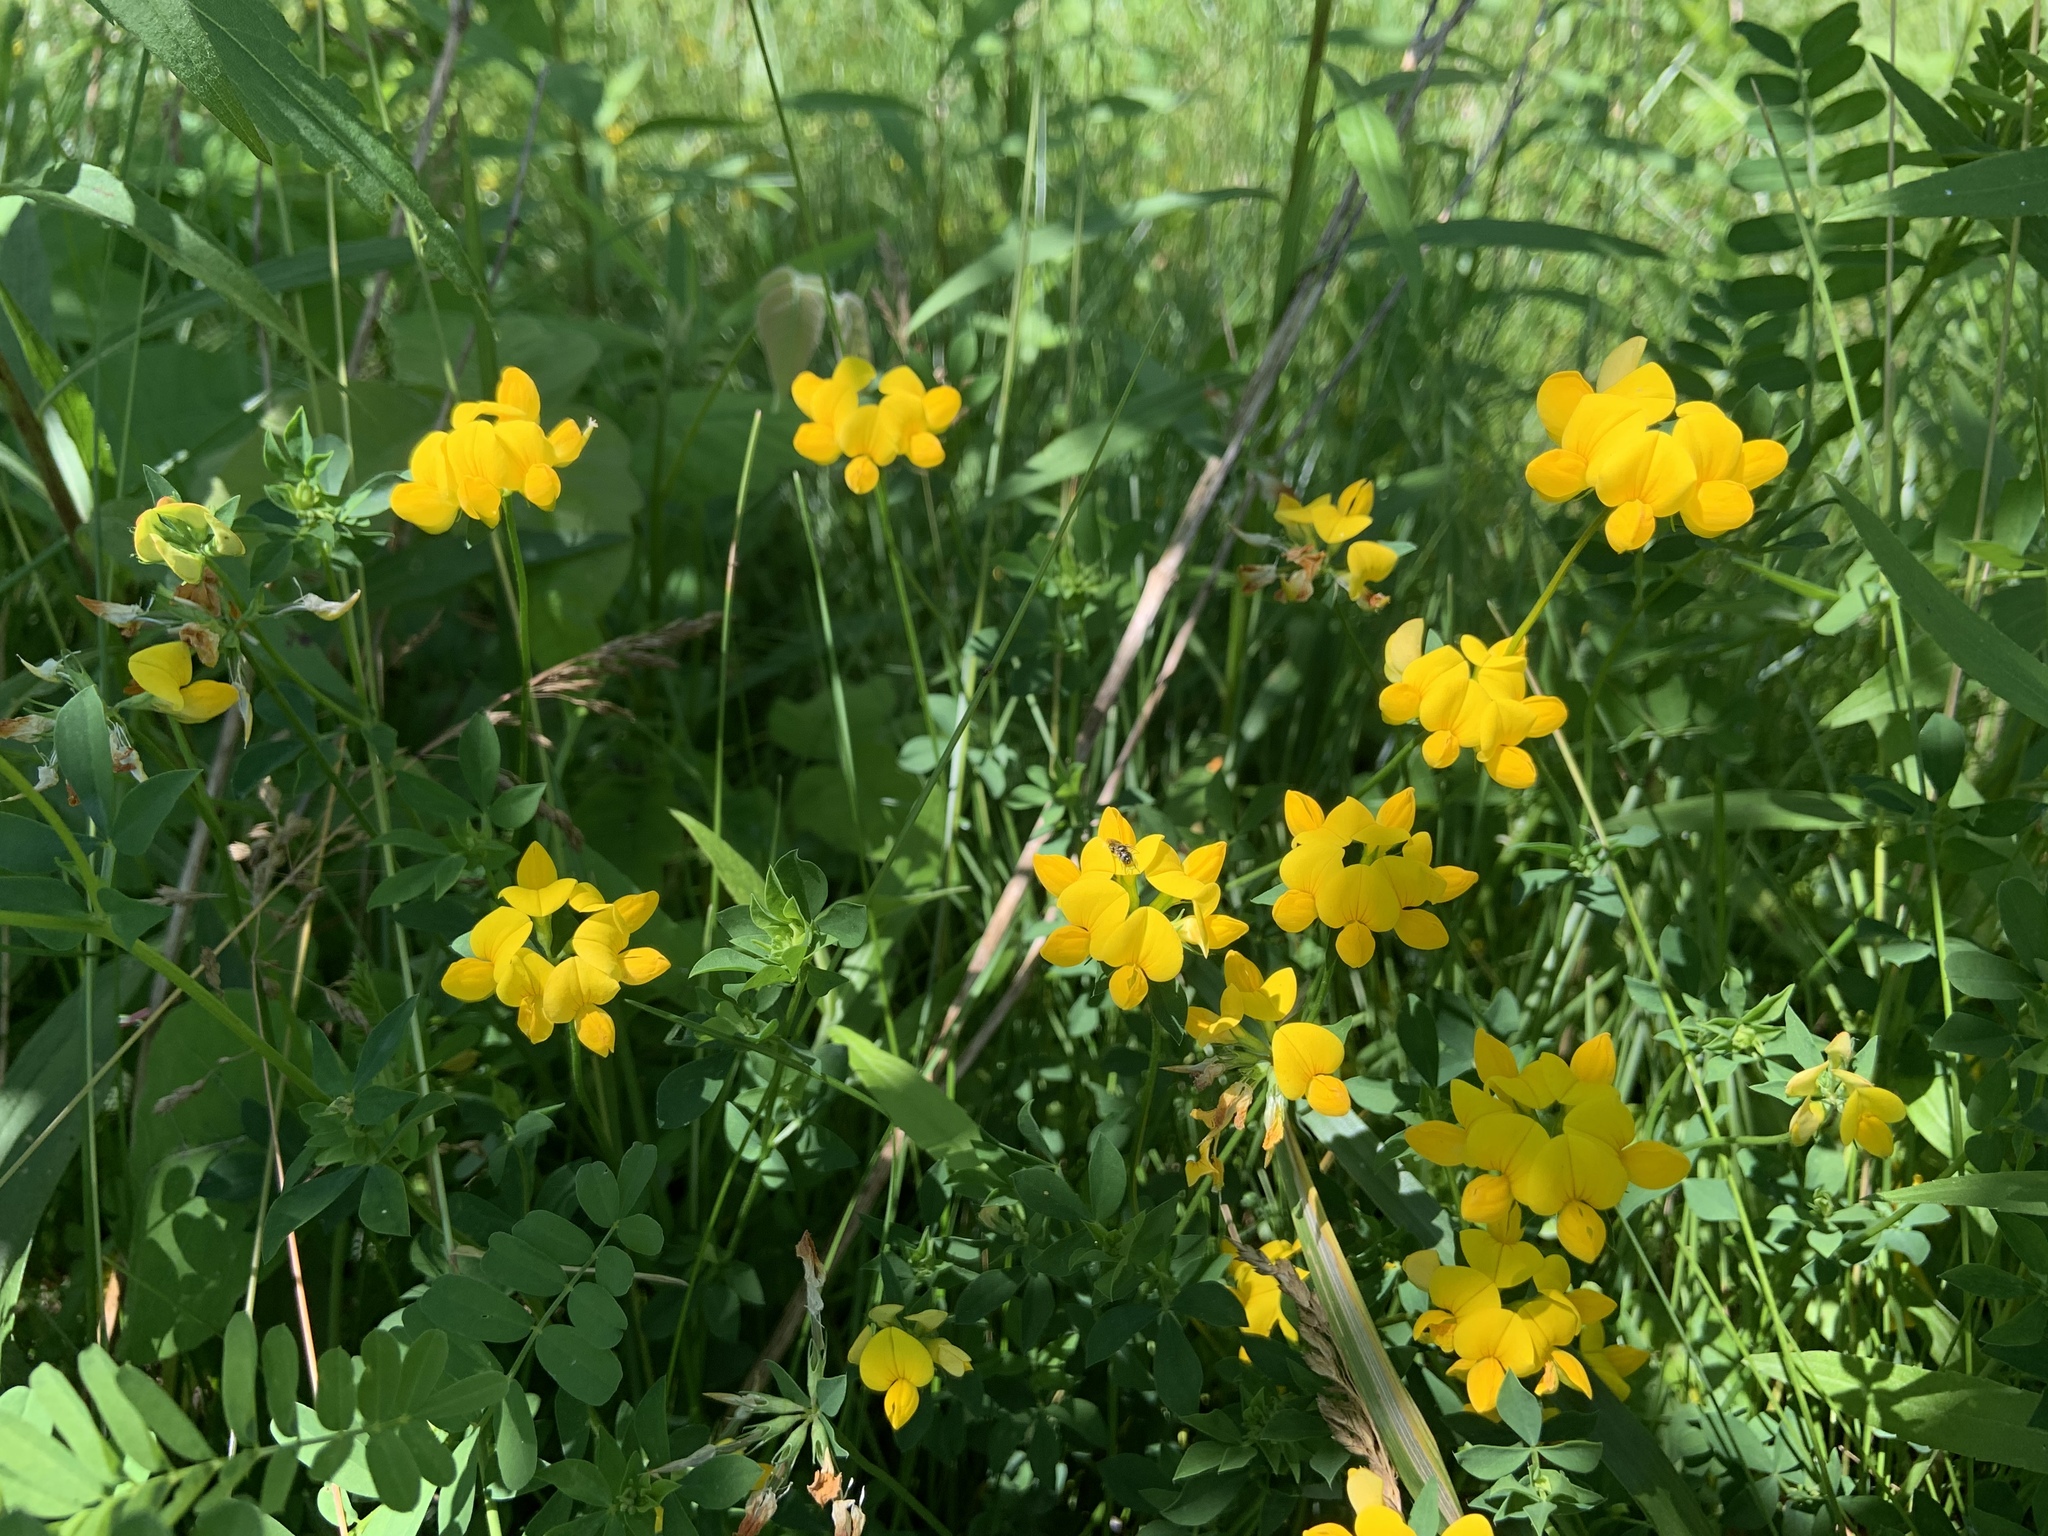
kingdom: Plantae
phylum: Tracheophyta
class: Magnoliopsida
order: Fabales
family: Fabaceae
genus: Lotus
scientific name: Lotus corniculatus
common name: Common bird's-foot-trefoil
